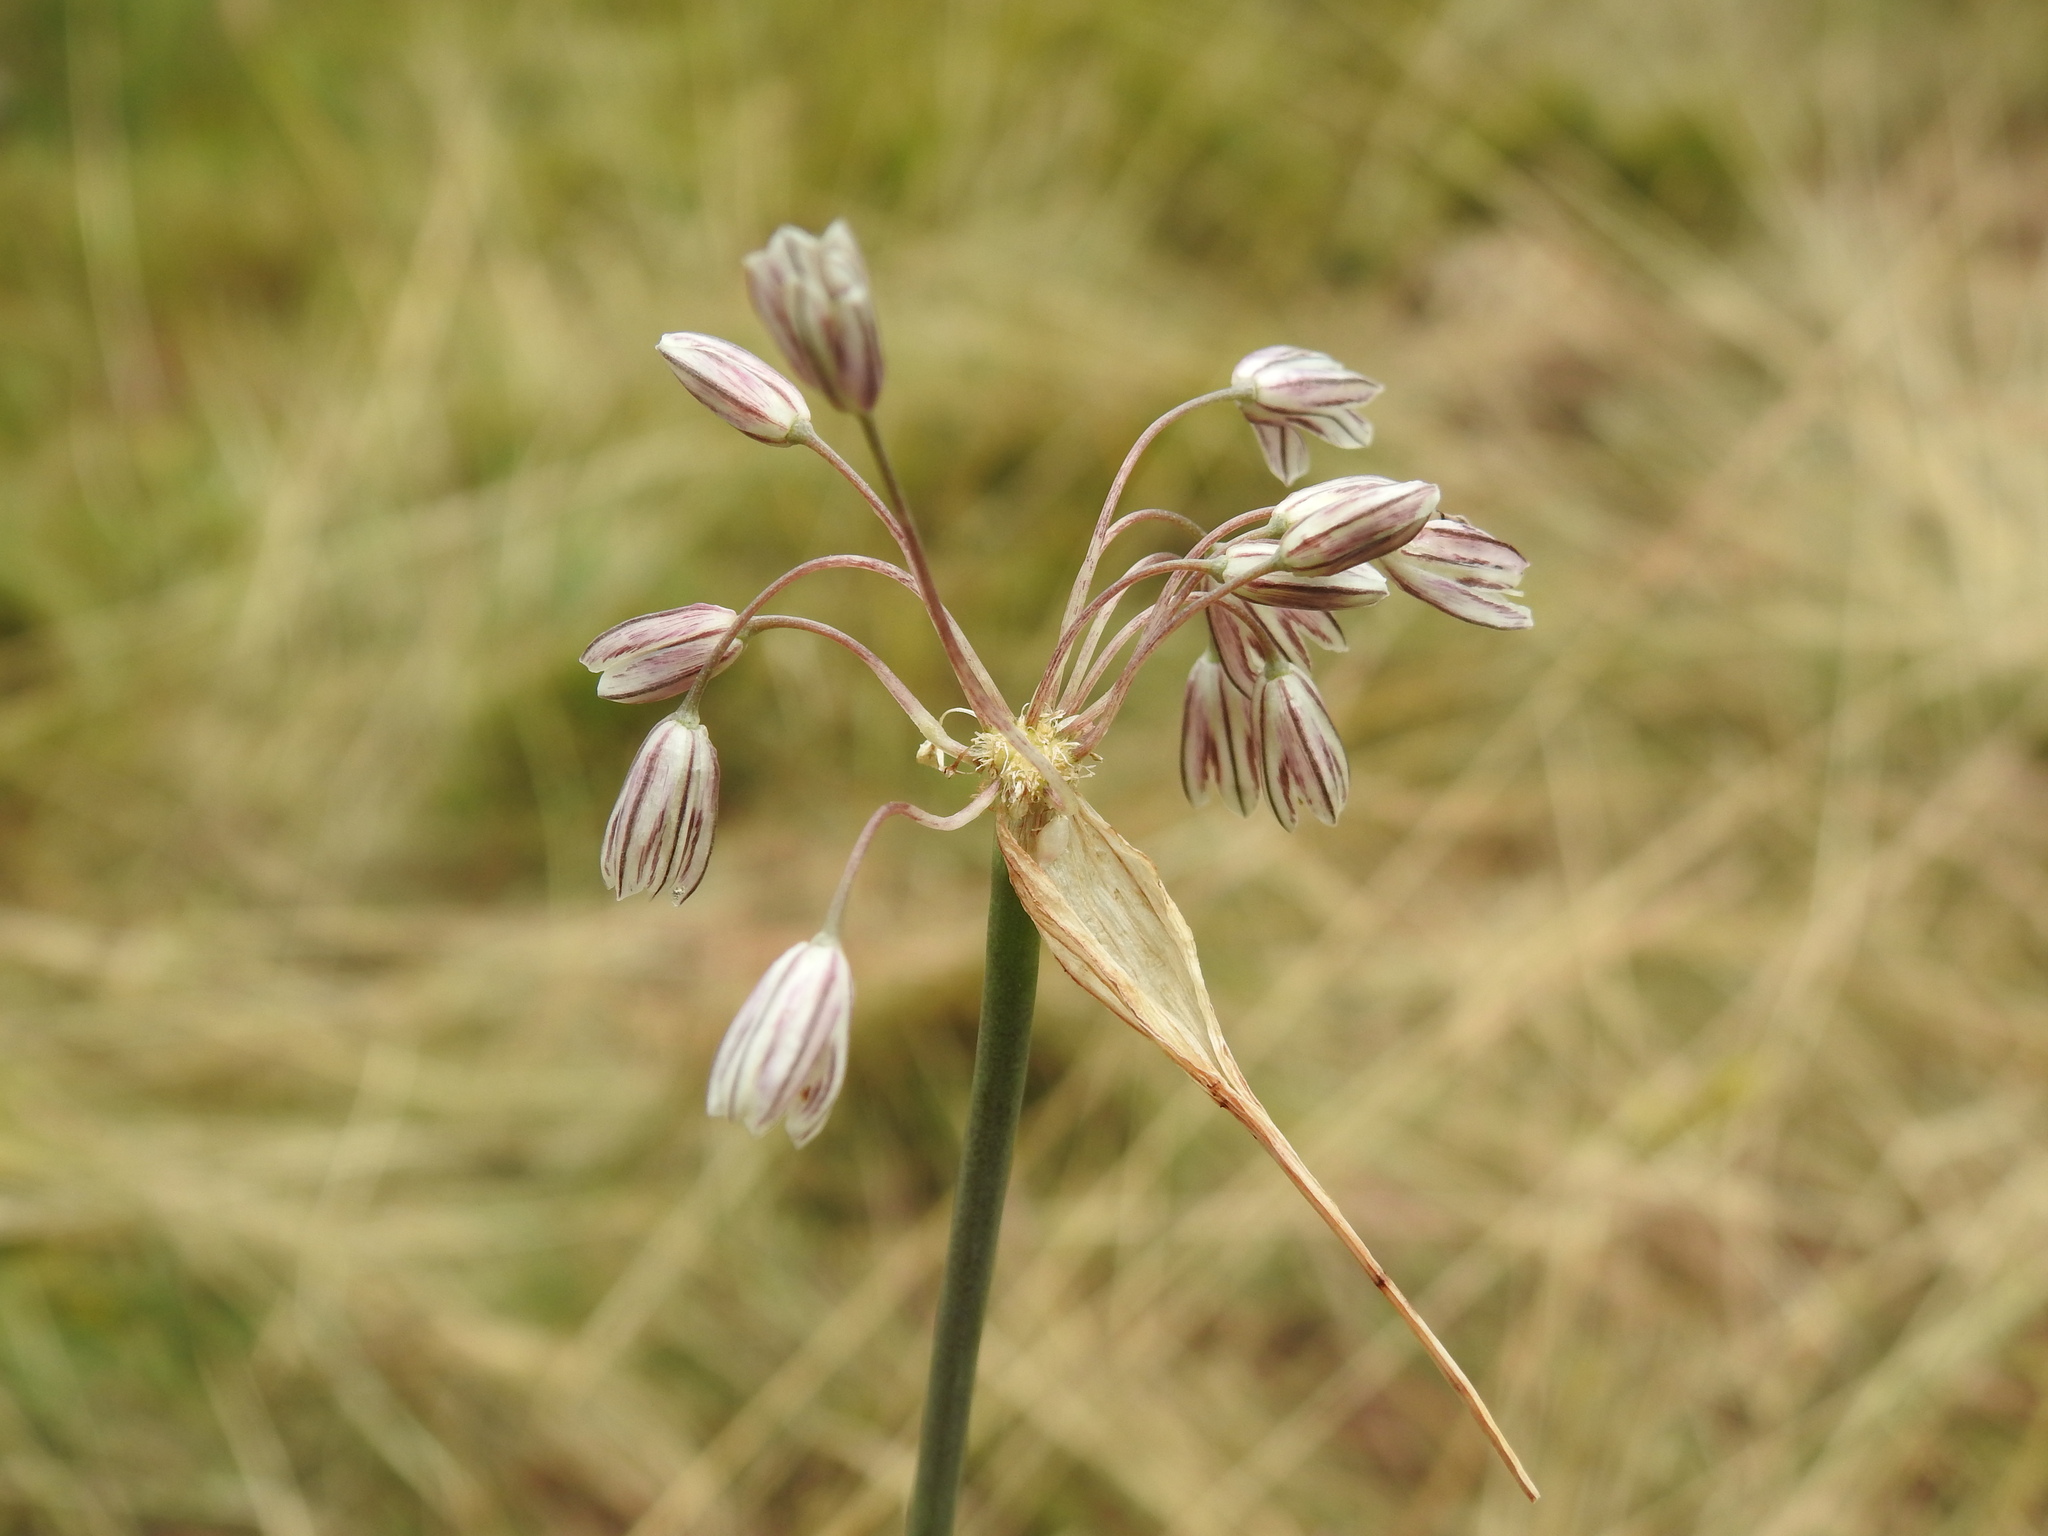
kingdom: Plantae
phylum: Tracheophyta
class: Liliopsida
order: Asparagales
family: Amaryllidaceae
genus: Allium
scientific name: Allium oleraceum
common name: Field garlic
